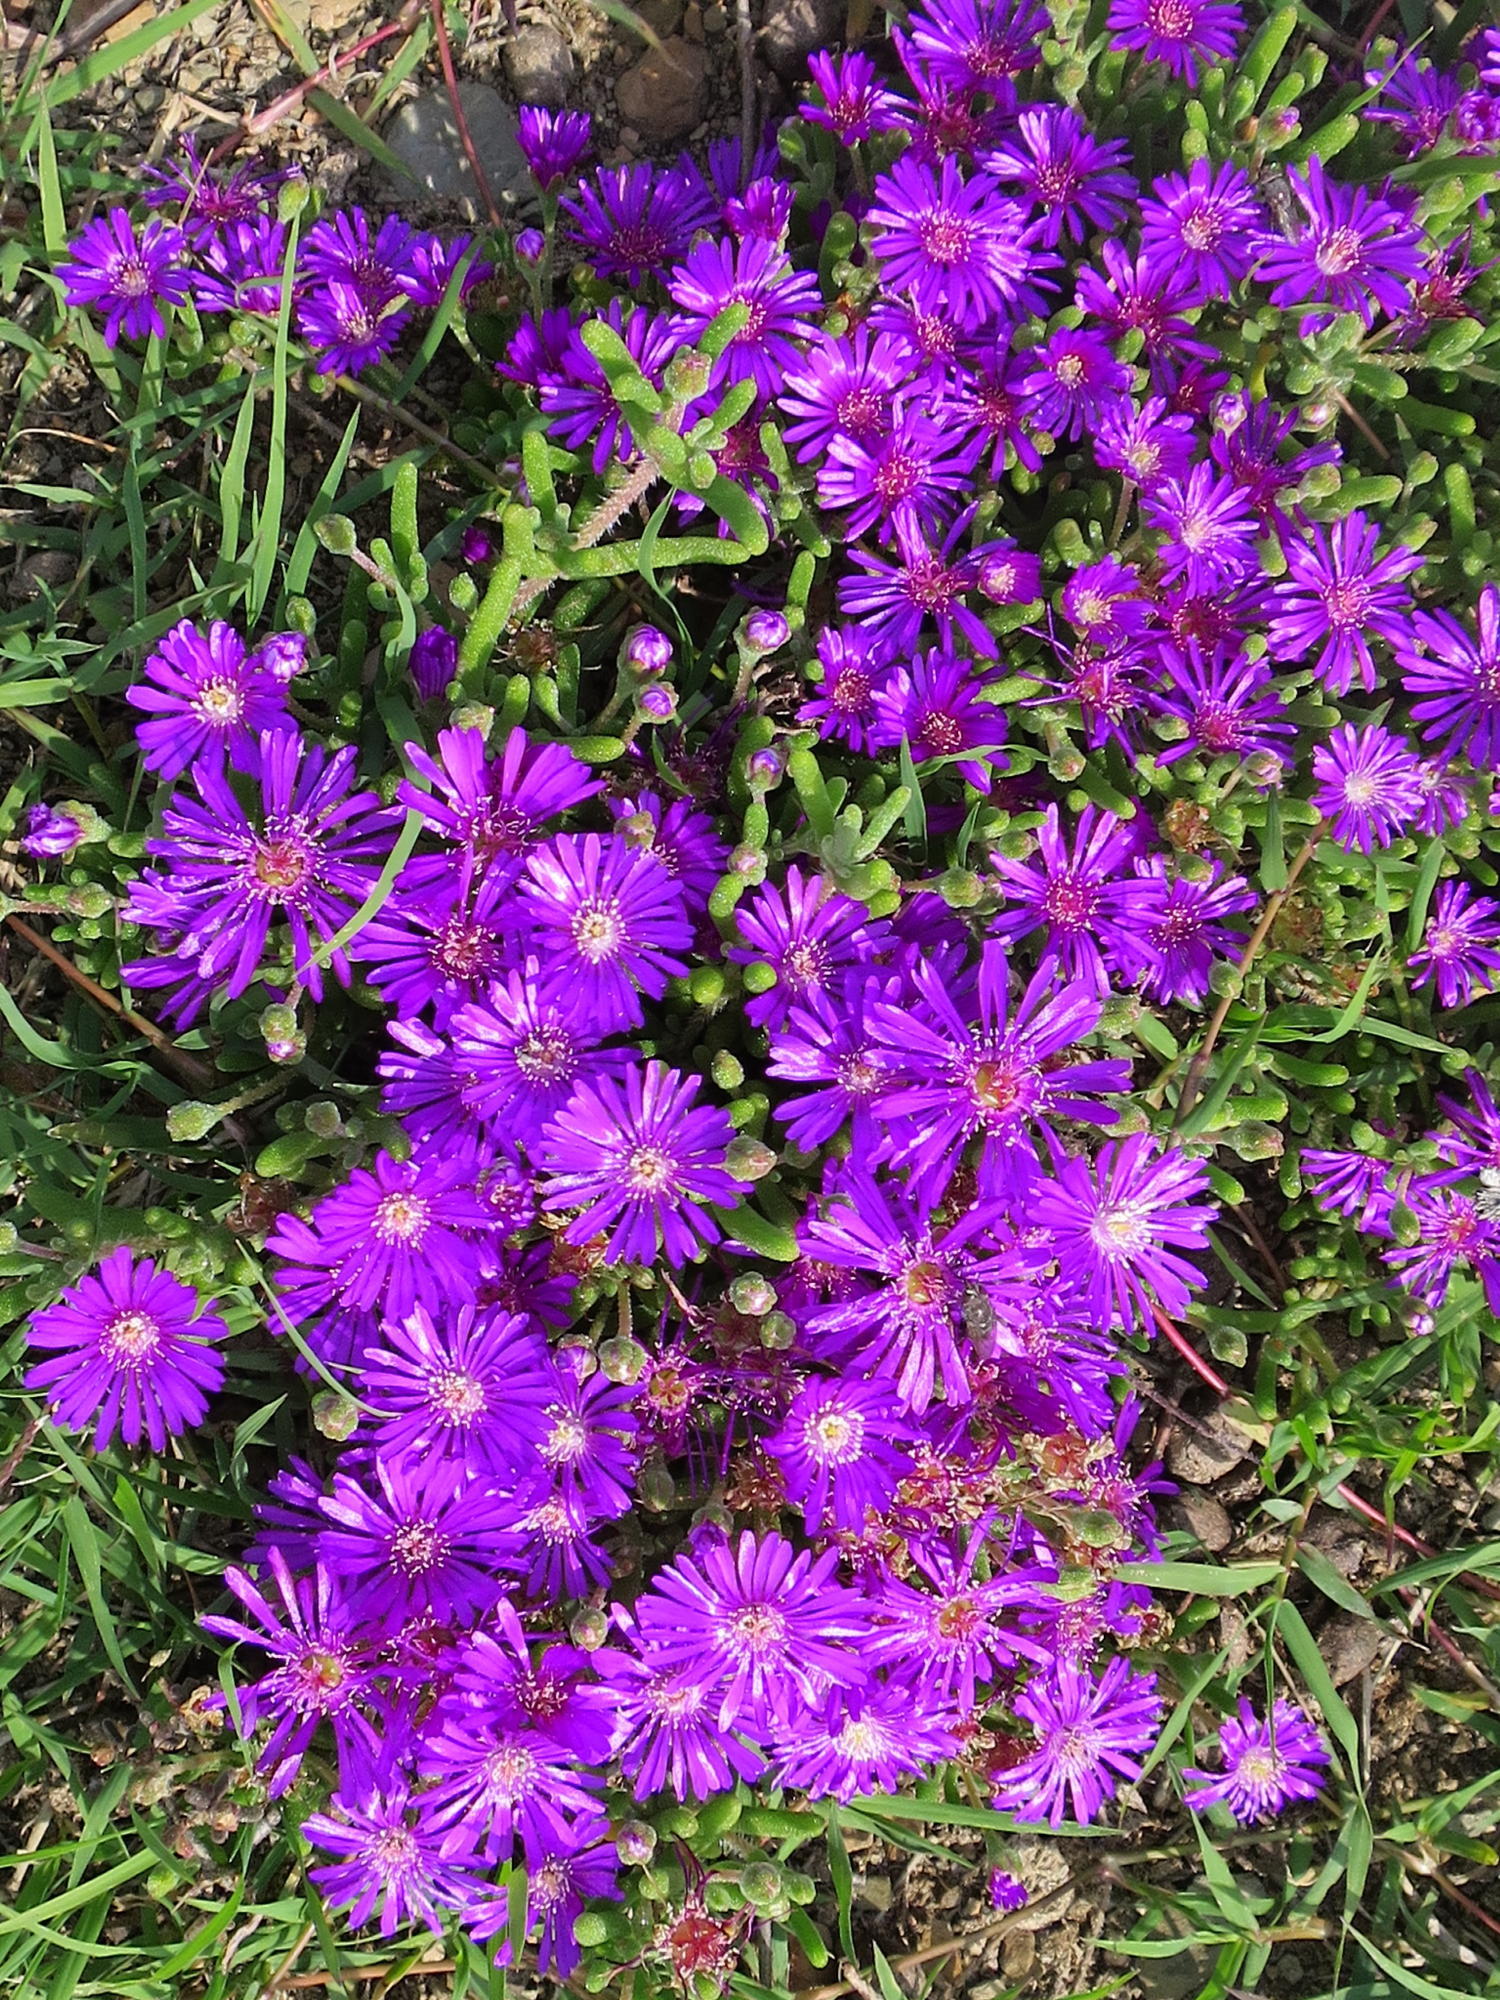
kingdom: Plantae
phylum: Tracheophyta
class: Magnoliopsida
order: Caryophyllales
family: Aizoaceae
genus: Drosanthemum
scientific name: Drosanthemum hispidum
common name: Hairy dewflower
